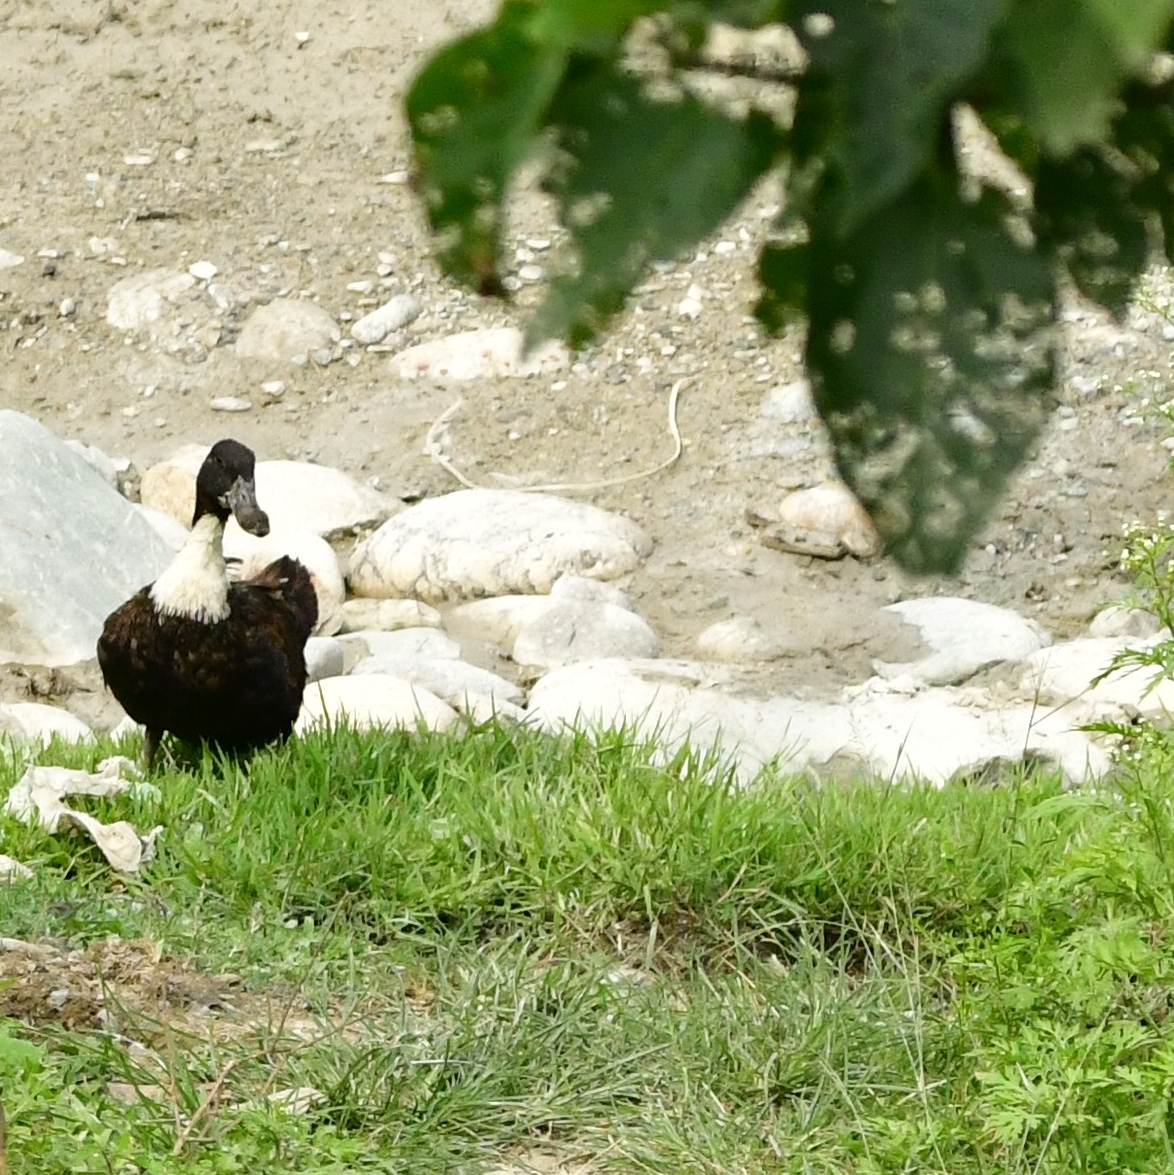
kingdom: Animalia
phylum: Chordata
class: Aves
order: Anseriformes
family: Anatidae
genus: Anas
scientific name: Anas platyrhynchos
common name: Mallard
